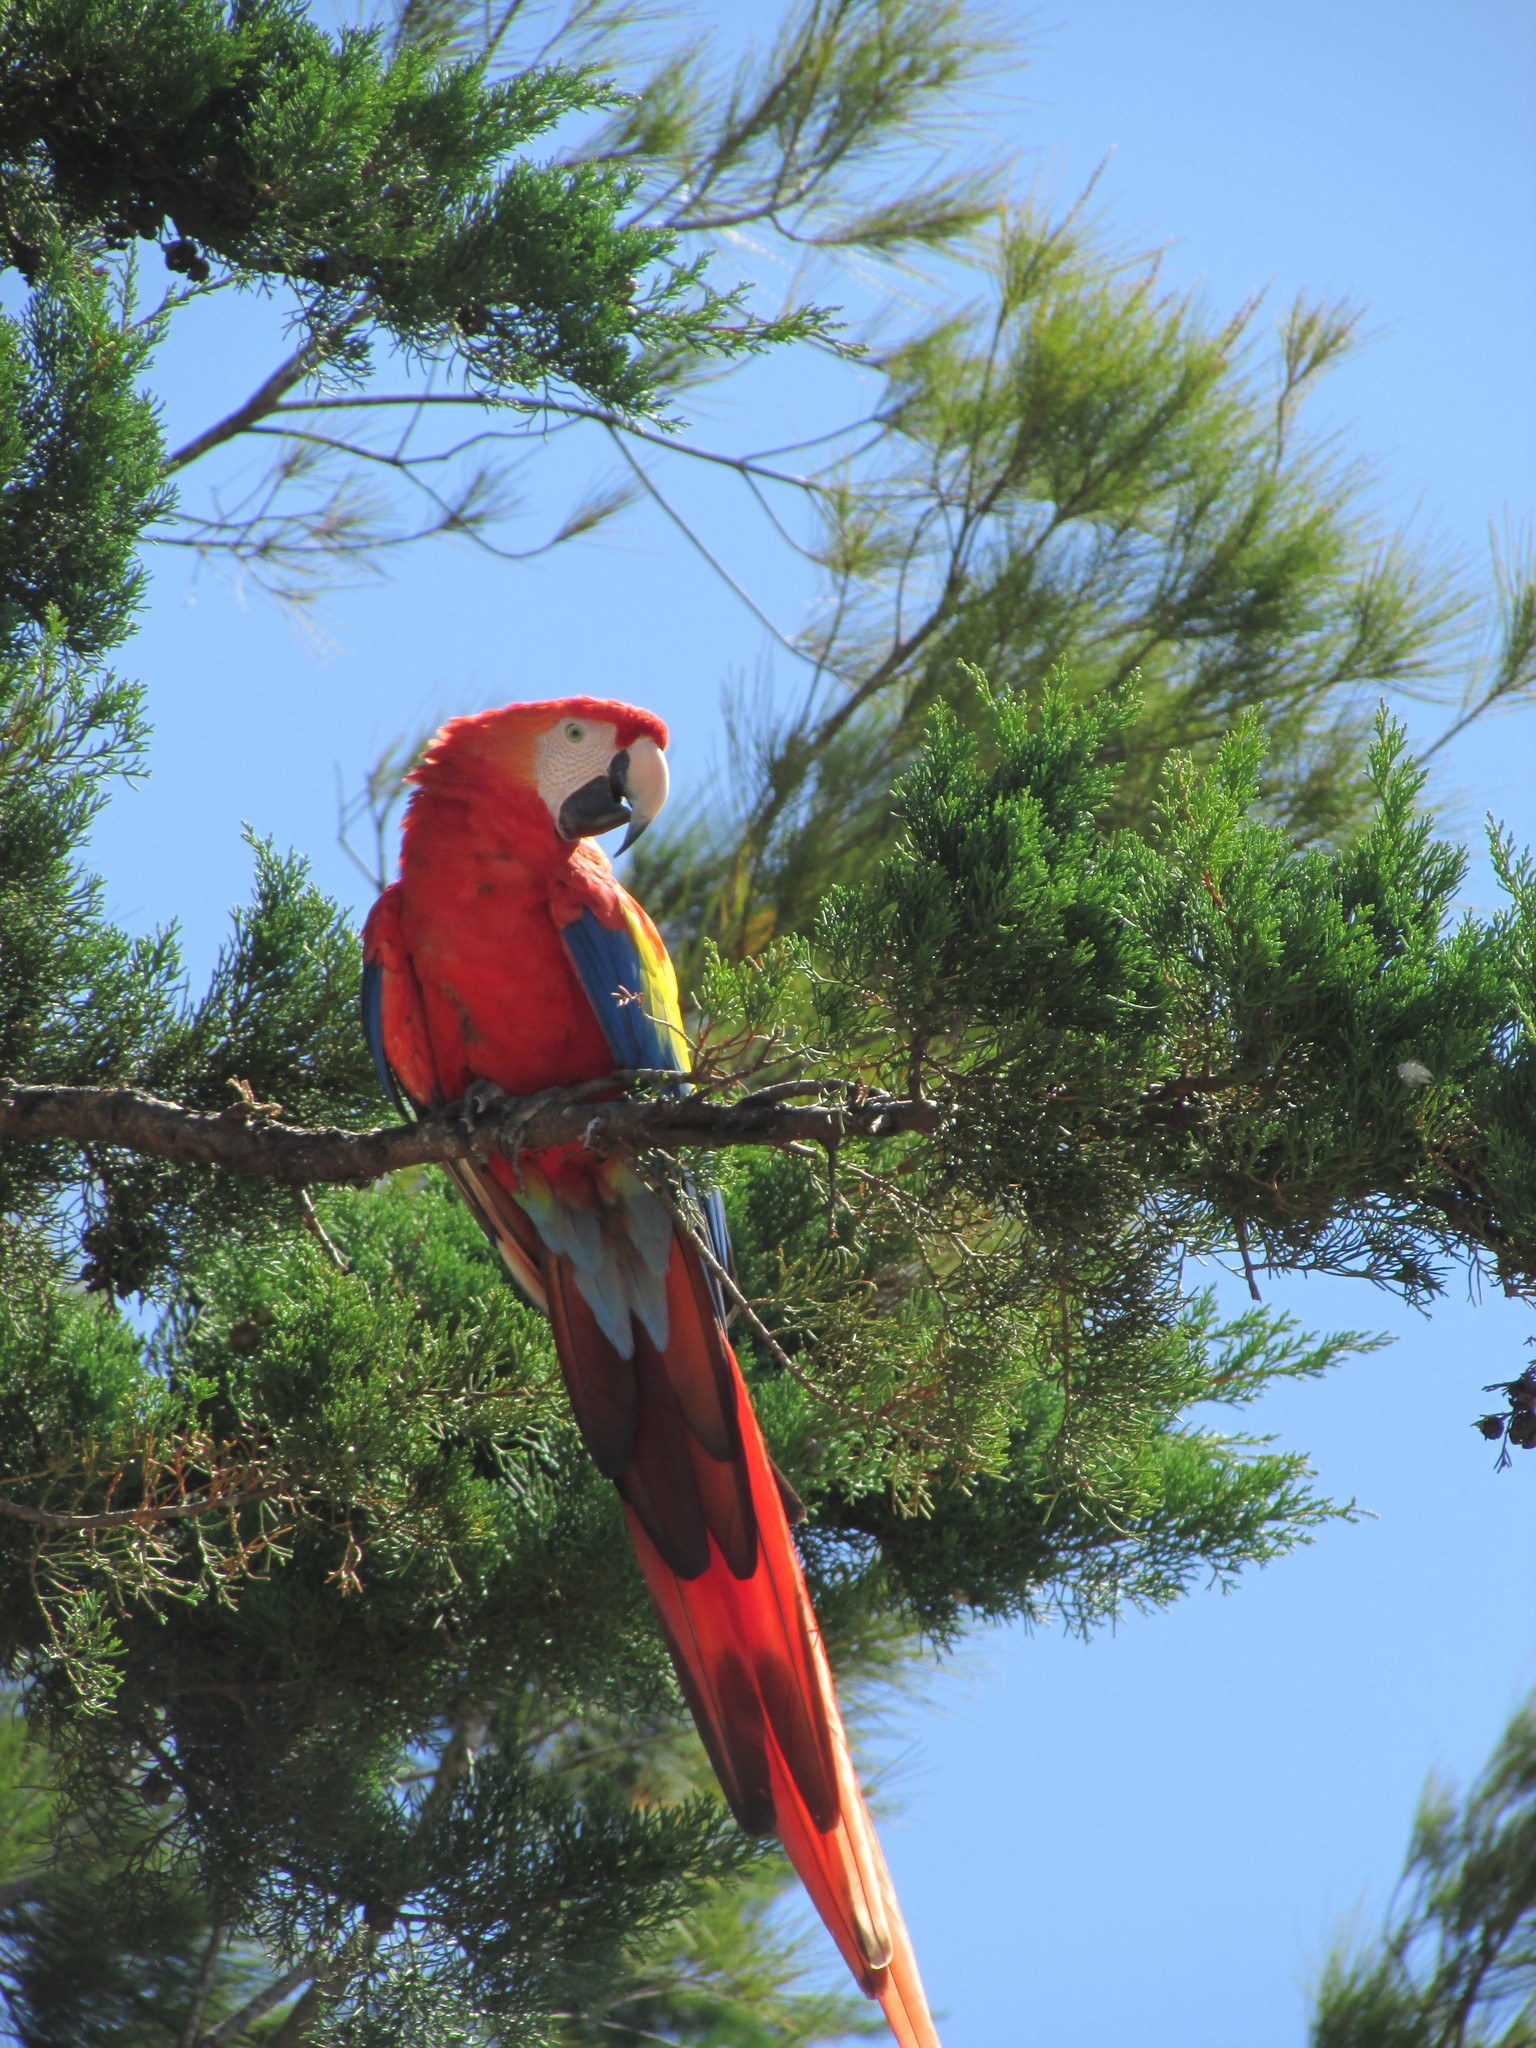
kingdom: Animalia
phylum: Chordata
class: Aves
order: Psittaciformes
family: Psittacidae
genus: Ara
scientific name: Ara macao
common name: Scarlet macaw
